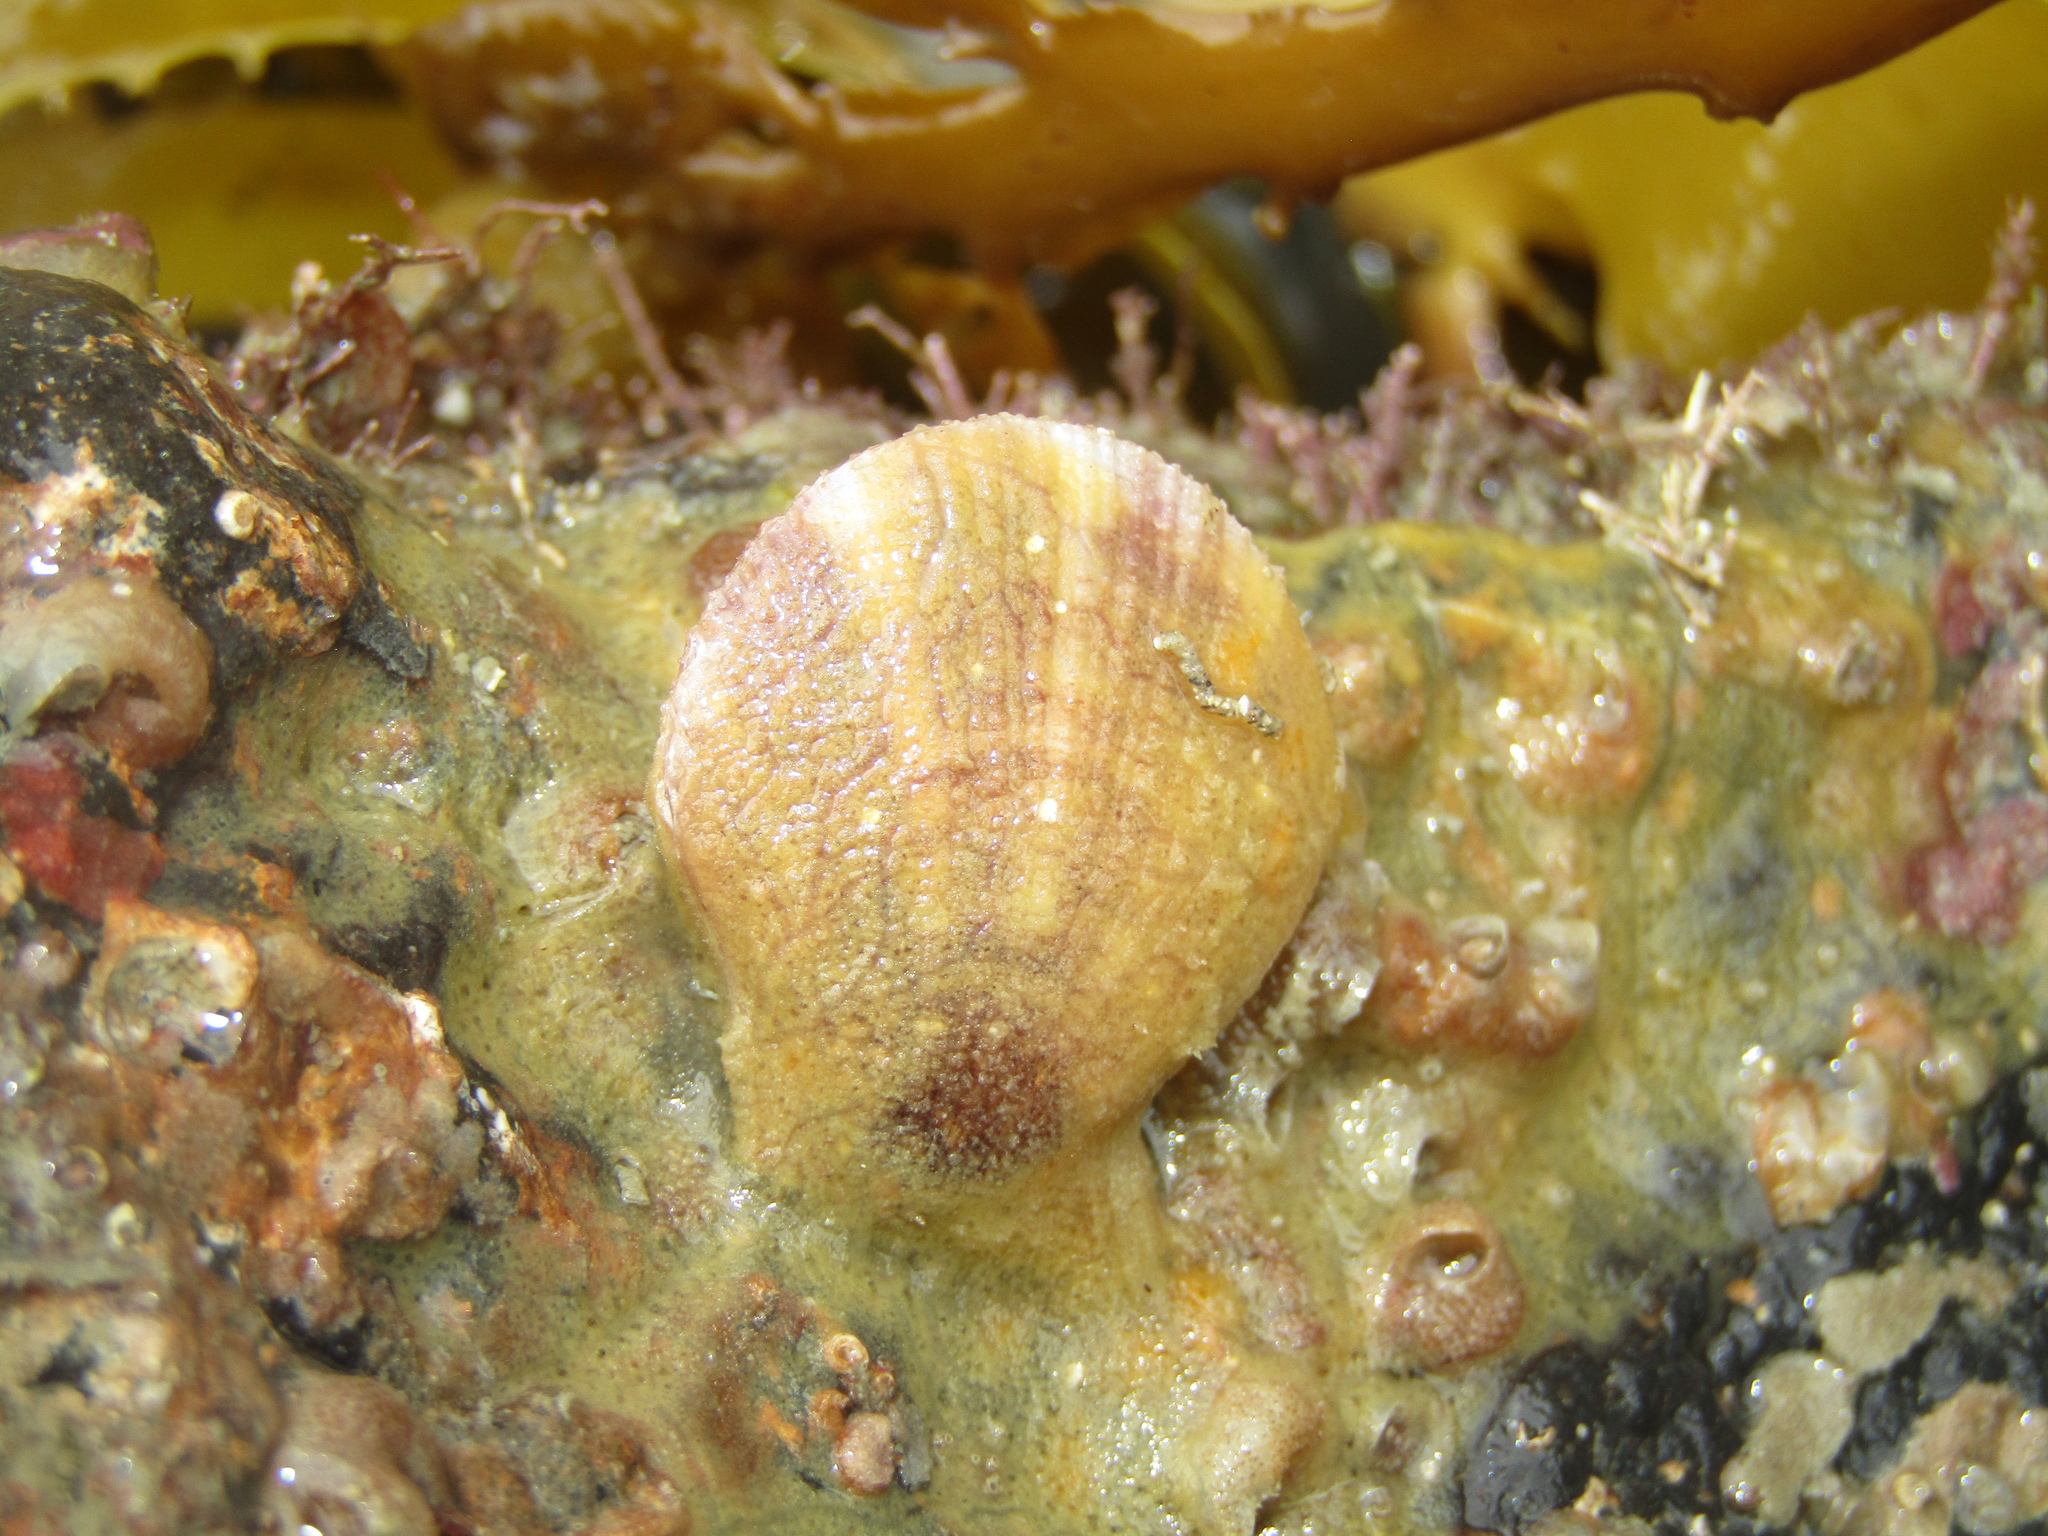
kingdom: Animalia
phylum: Mollusca
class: Bivalvia
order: Pectinida
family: Pectinidae
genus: Talochlamys
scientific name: Talochlamys zelandiae
